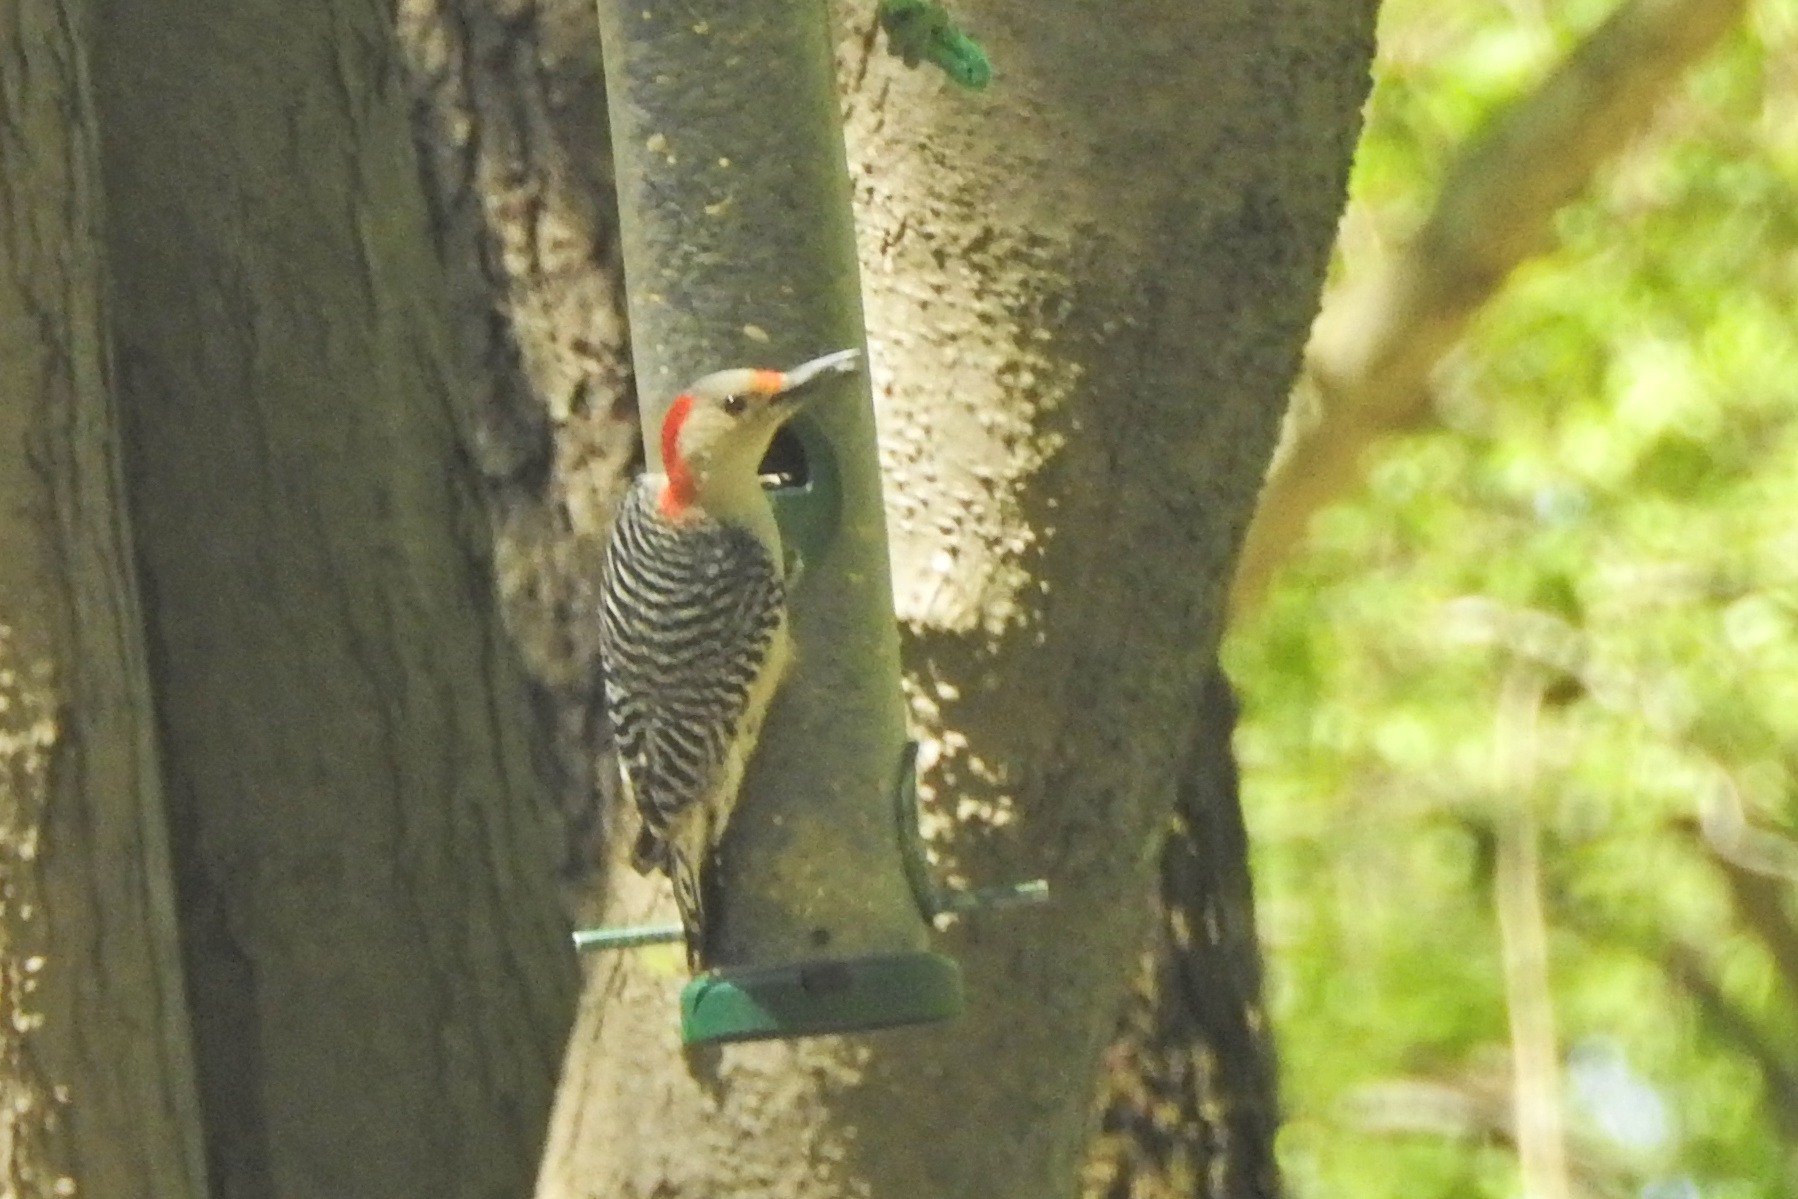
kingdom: Animalia
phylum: Chordata
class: Aves
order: Piciformes
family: Picidae
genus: Melanerpes
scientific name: Melanerpes carolinus
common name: Red-bellied woodpecker
